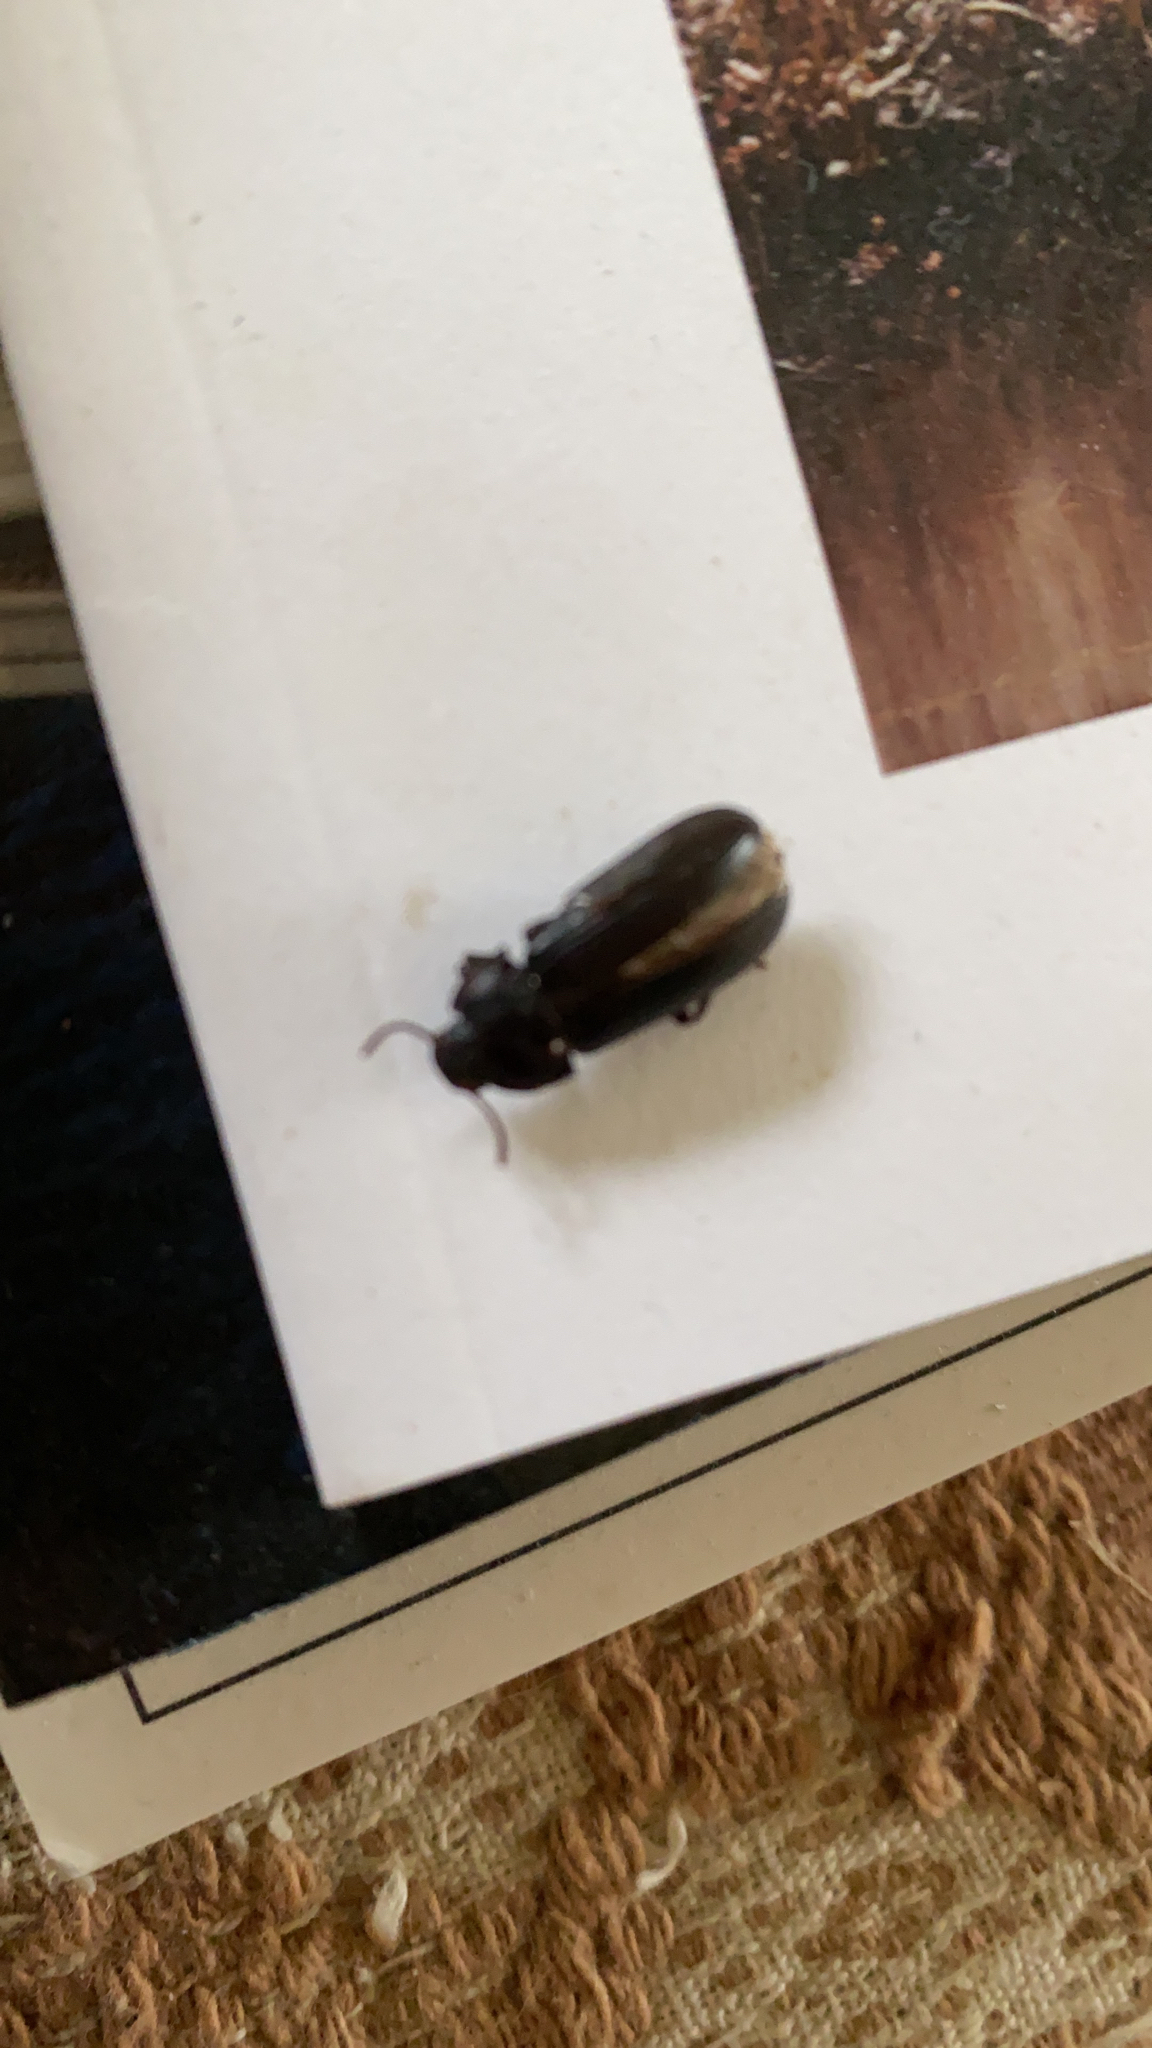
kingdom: Animalia
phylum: Arthropoda
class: Insecta
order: Coleoptera
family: Tenebrionidae
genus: Tenebrio
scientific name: Tenebrio molitor
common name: Hardback beetle
